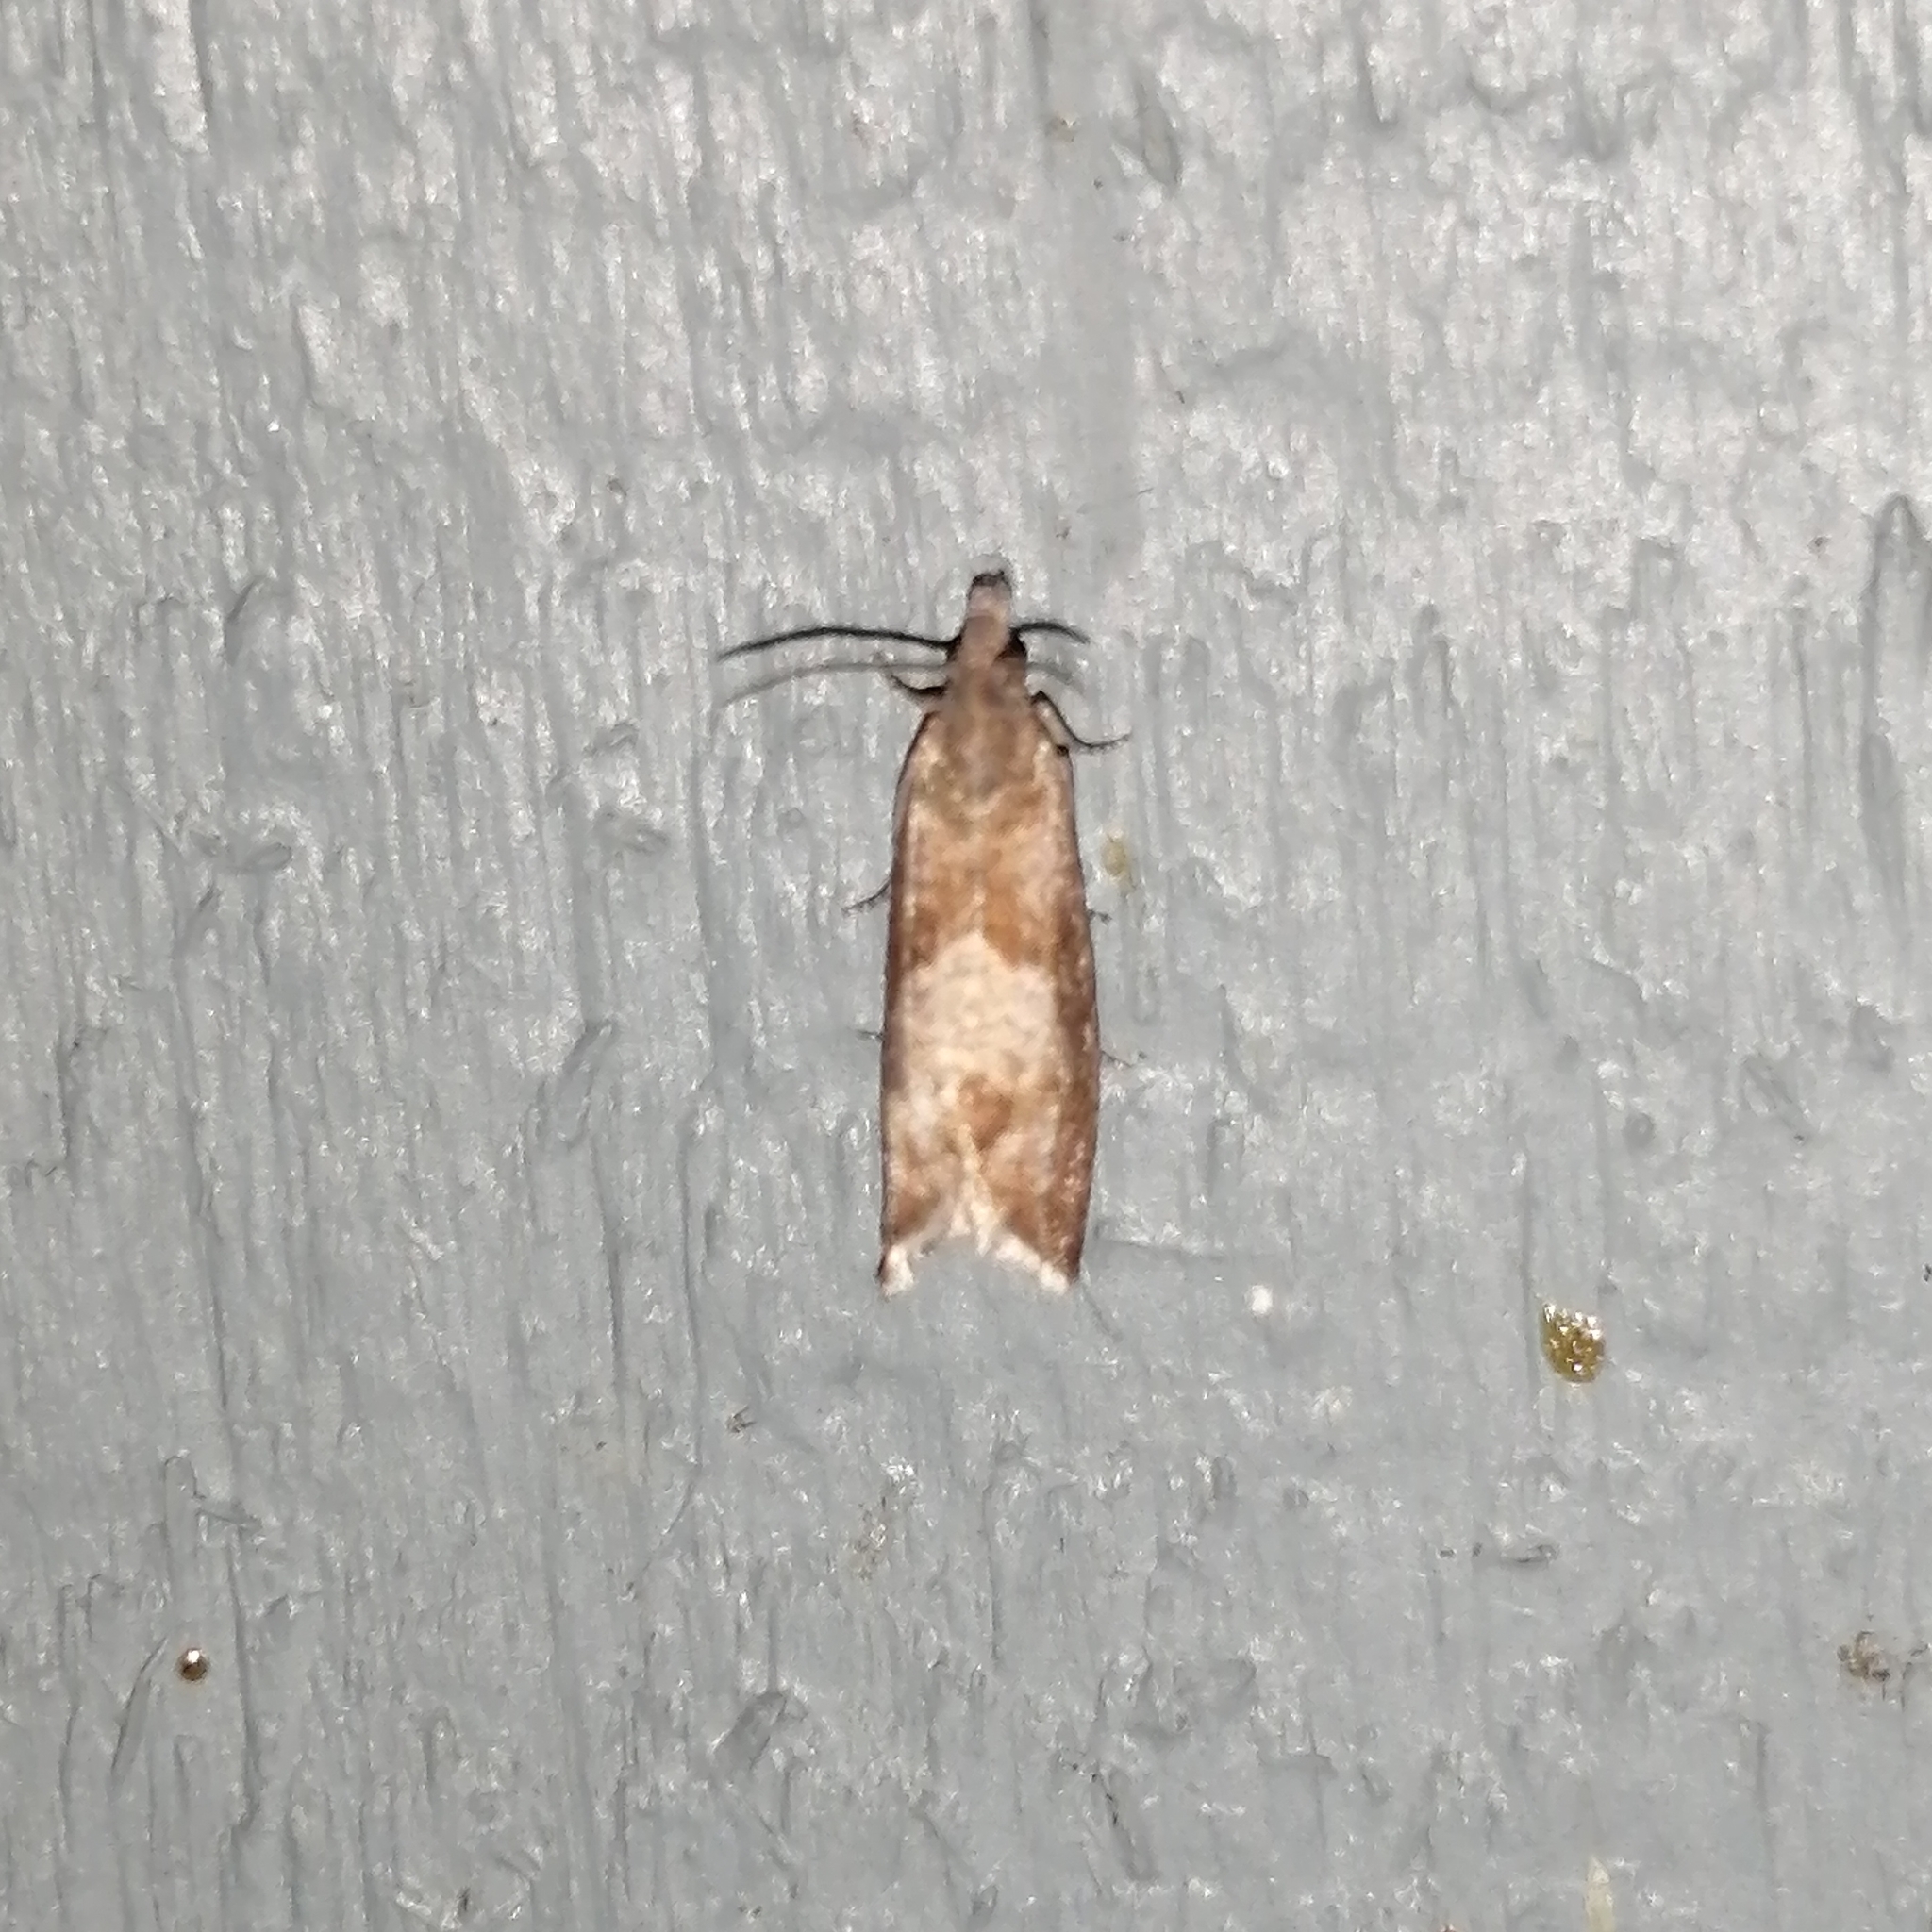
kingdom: Animalia
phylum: Arthropoda
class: Insecta
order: Lepidoptera
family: Tortricidae
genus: Dichrorampha
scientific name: Dichrorampha acuminatana
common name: Sharp-winged drill
